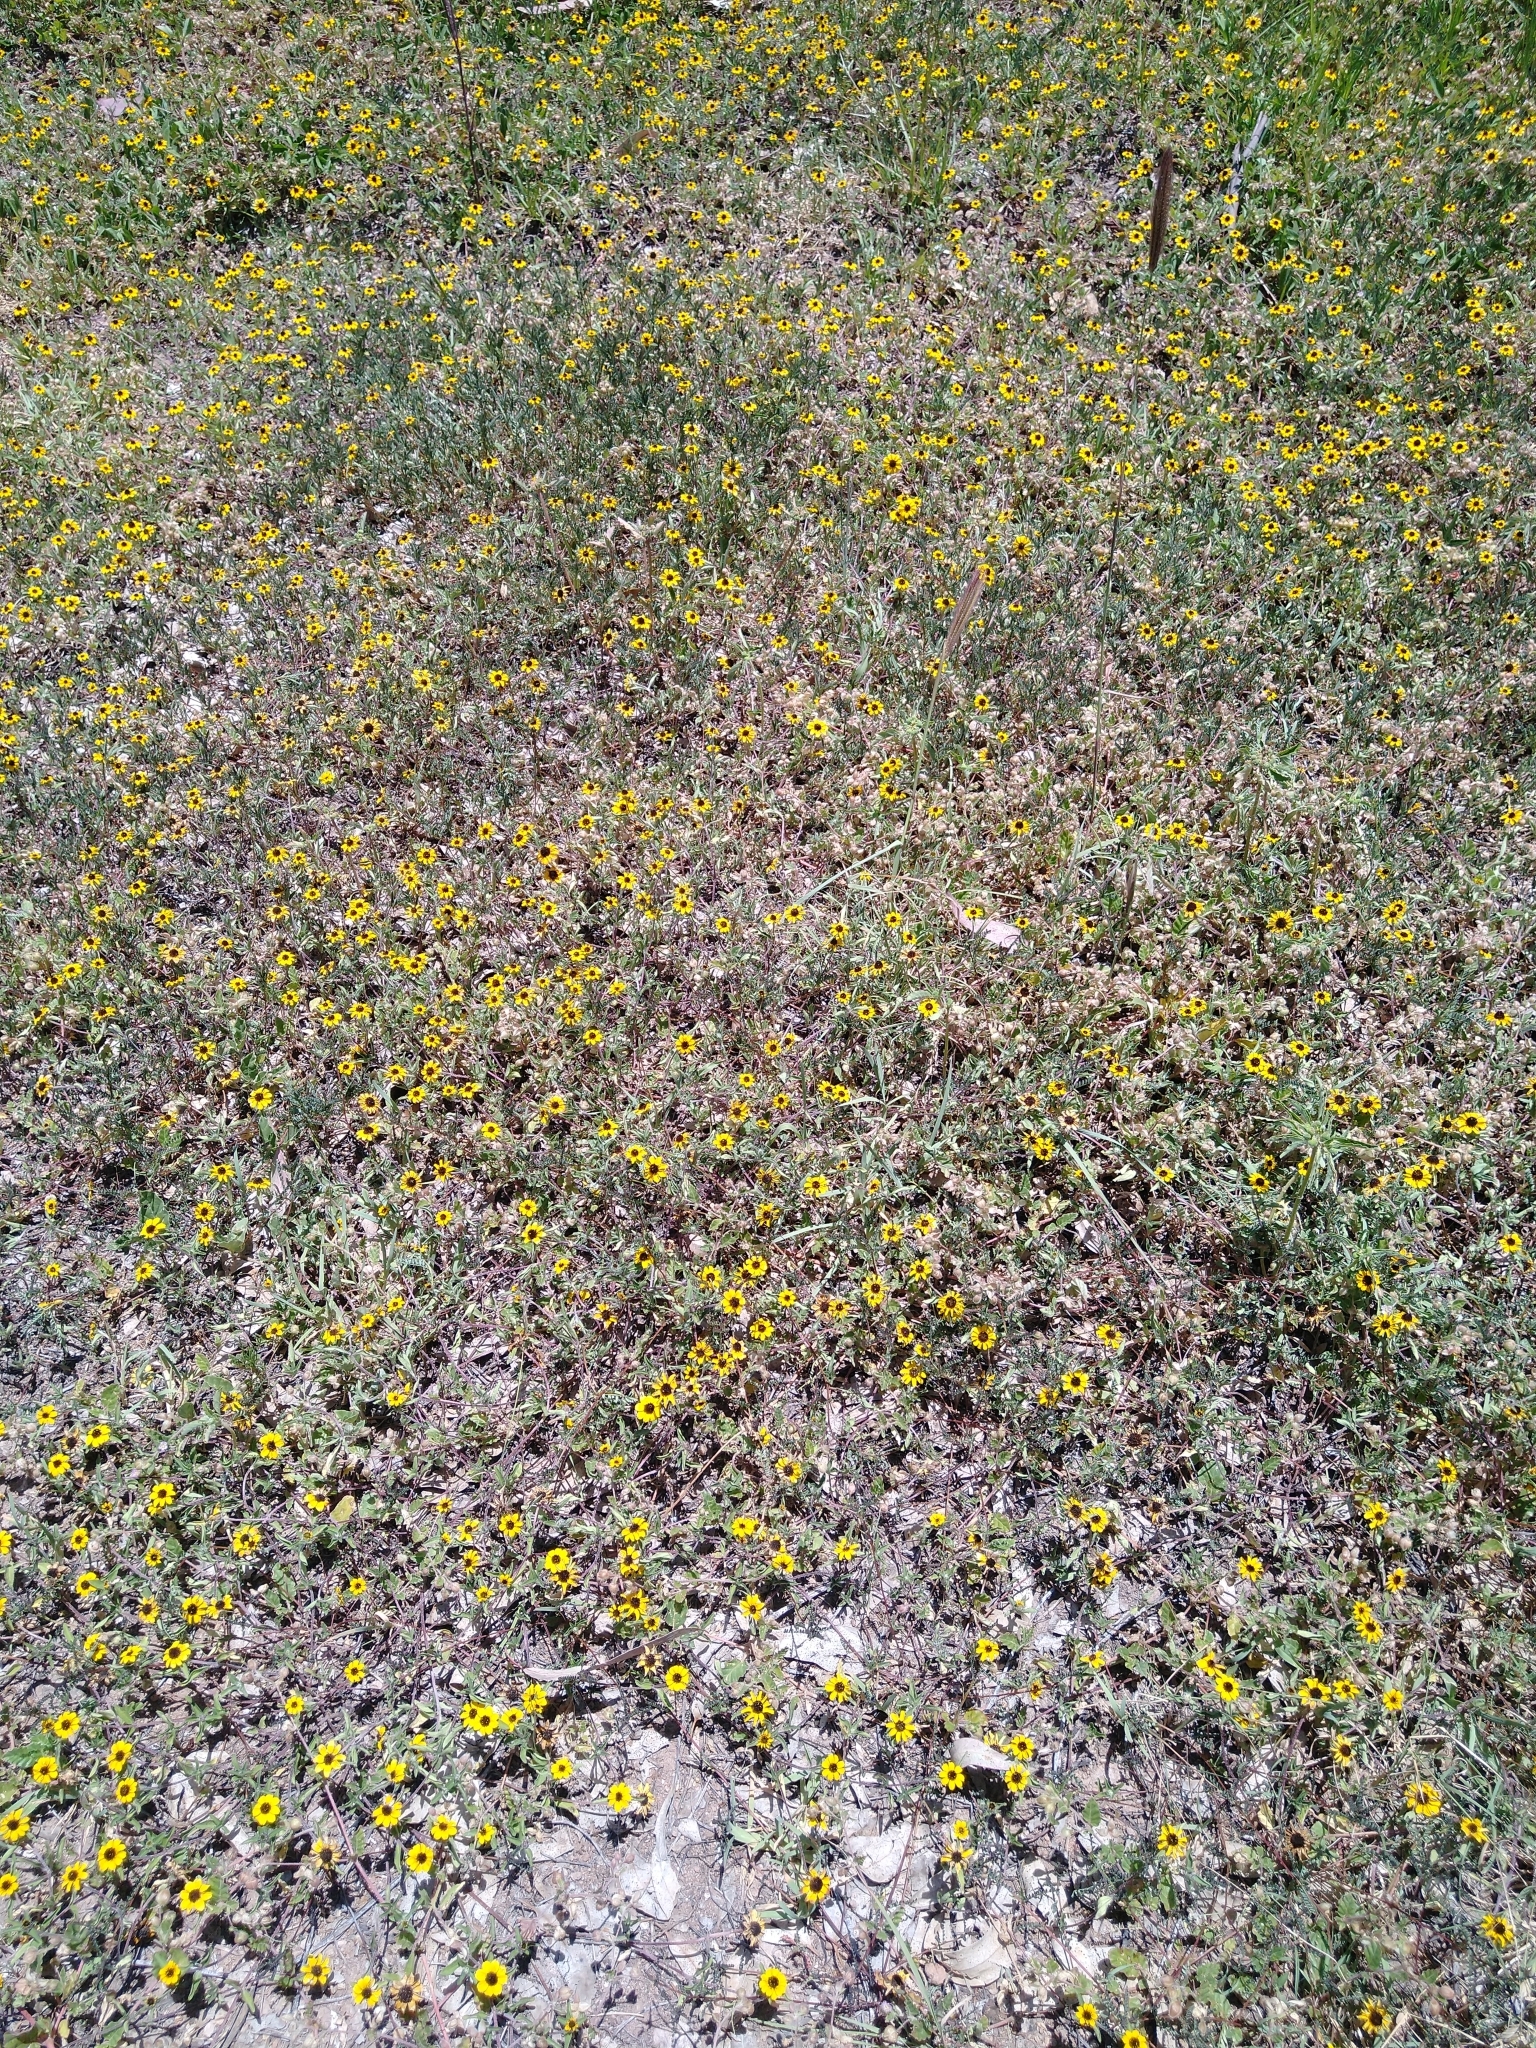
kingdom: Plantae
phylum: Tracheophyta
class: Magnoliopsida
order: Asterales
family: Asteraceae
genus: Sanvitalia
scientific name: Sanvitalia procumbens
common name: Mexican creeping zinnia
